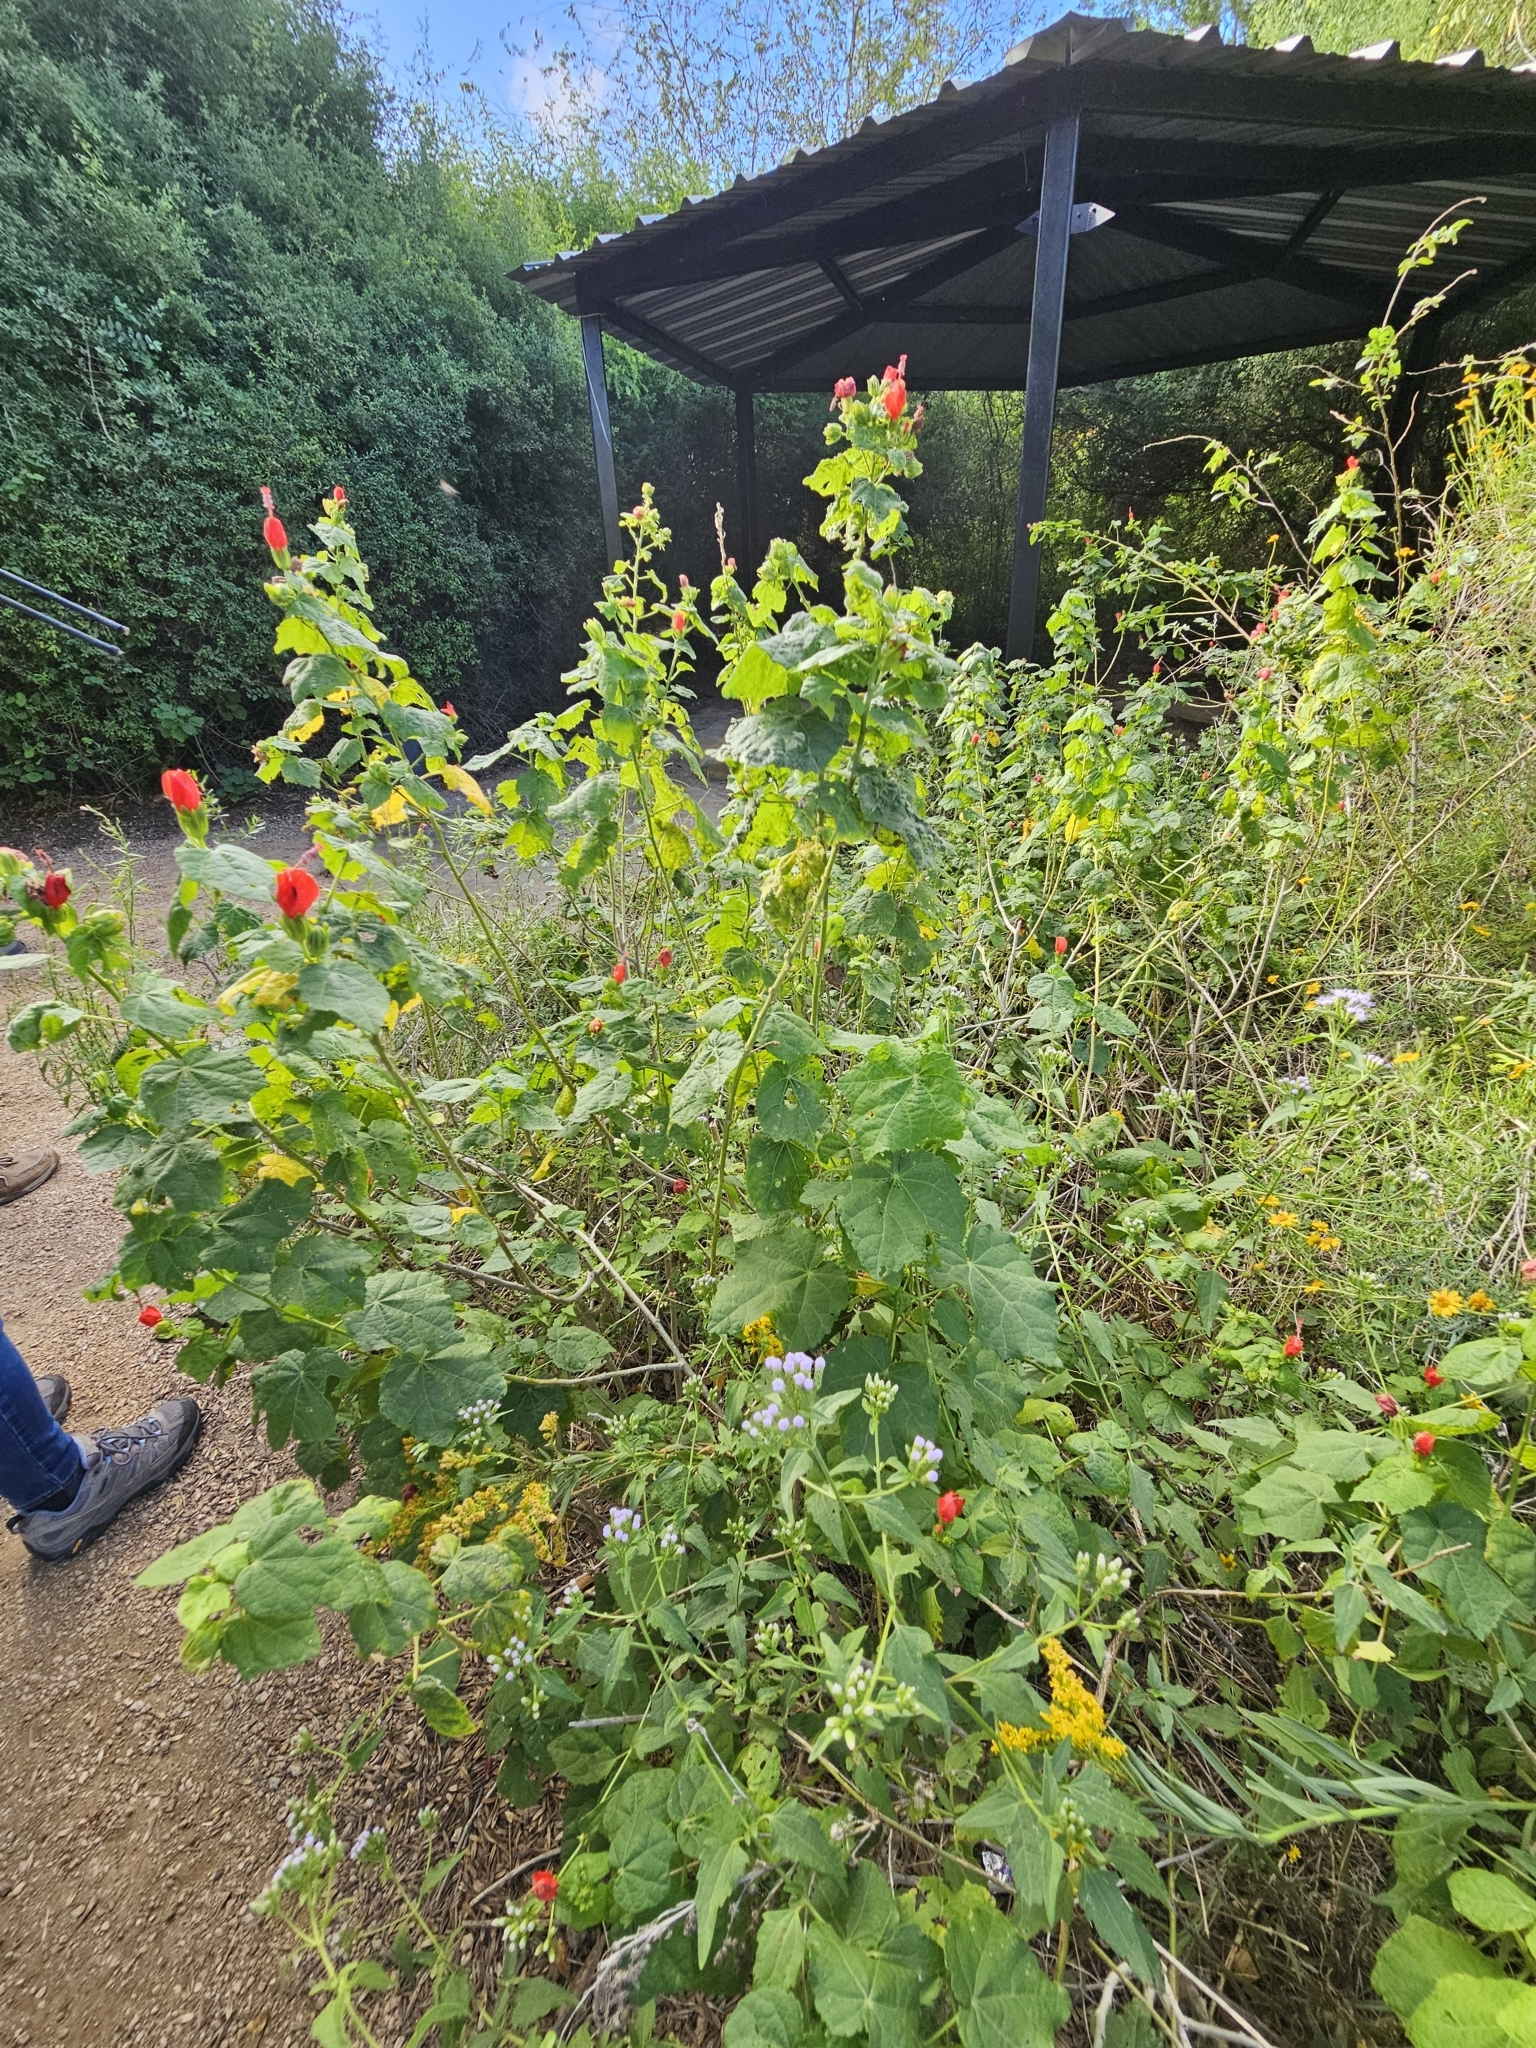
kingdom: Plantae
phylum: Tracheophyta
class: Magnoliopsida
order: Malvales
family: Malvaceae
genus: Malvaviscus
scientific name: Malvaviscus arboreus
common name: Wax mallow
